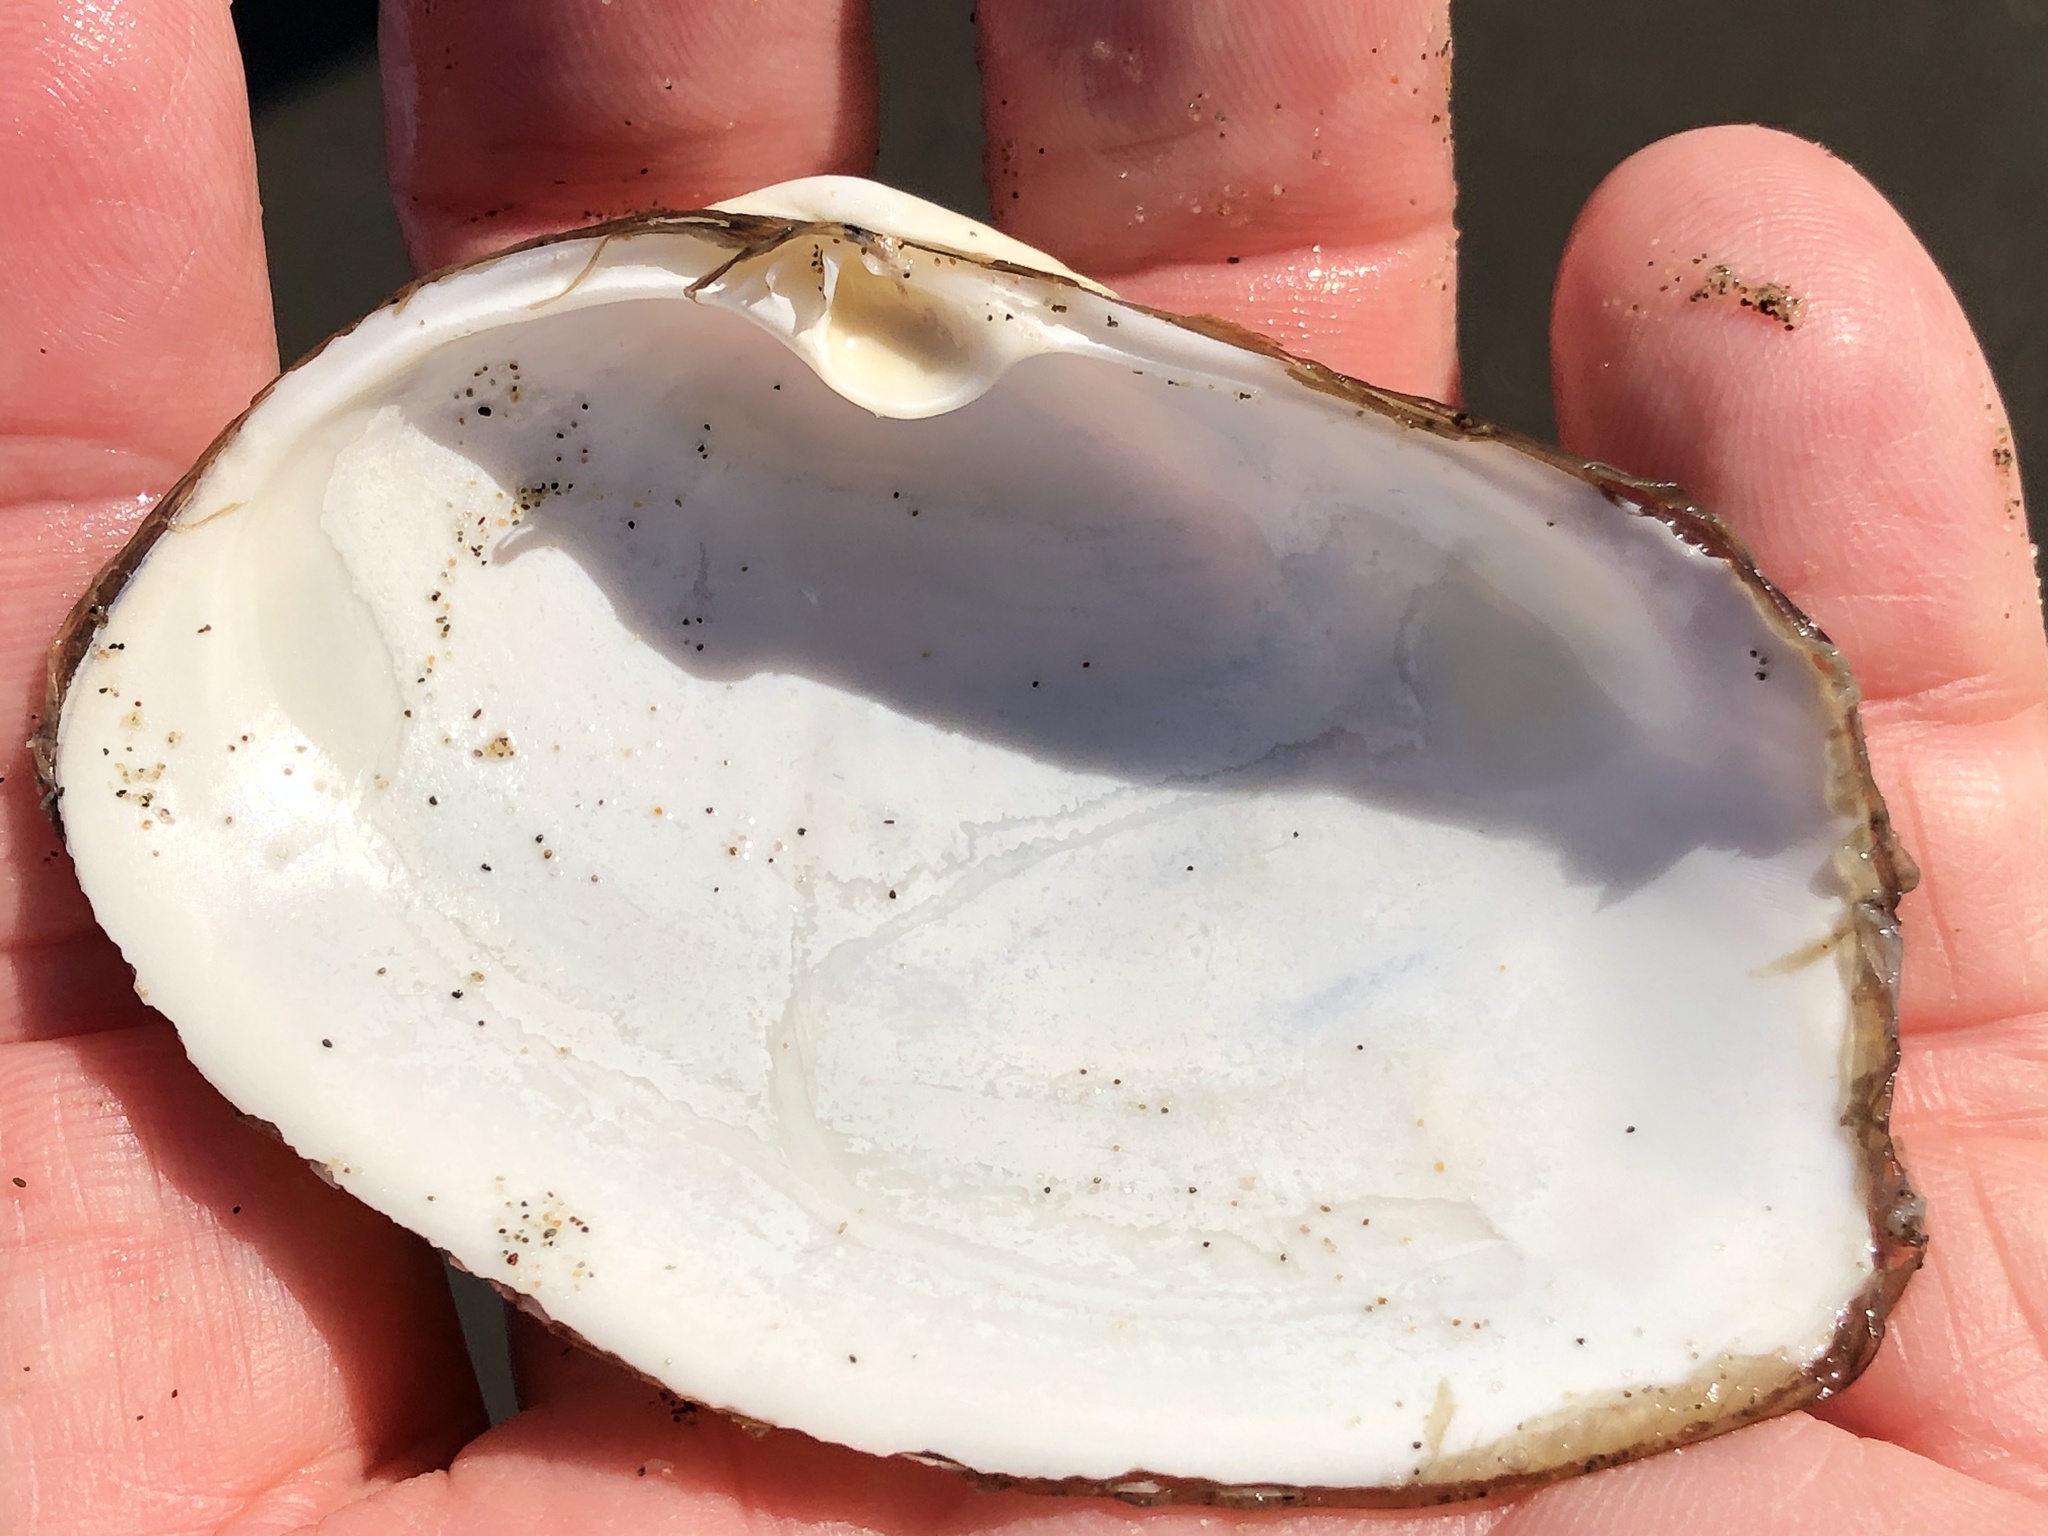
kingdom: Animalia
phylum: Mollusca
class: Bivalvia
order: Venerida
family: Mactridae
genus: Tresus
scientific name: Tresus nuttallii
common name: Pacific gaper clam
